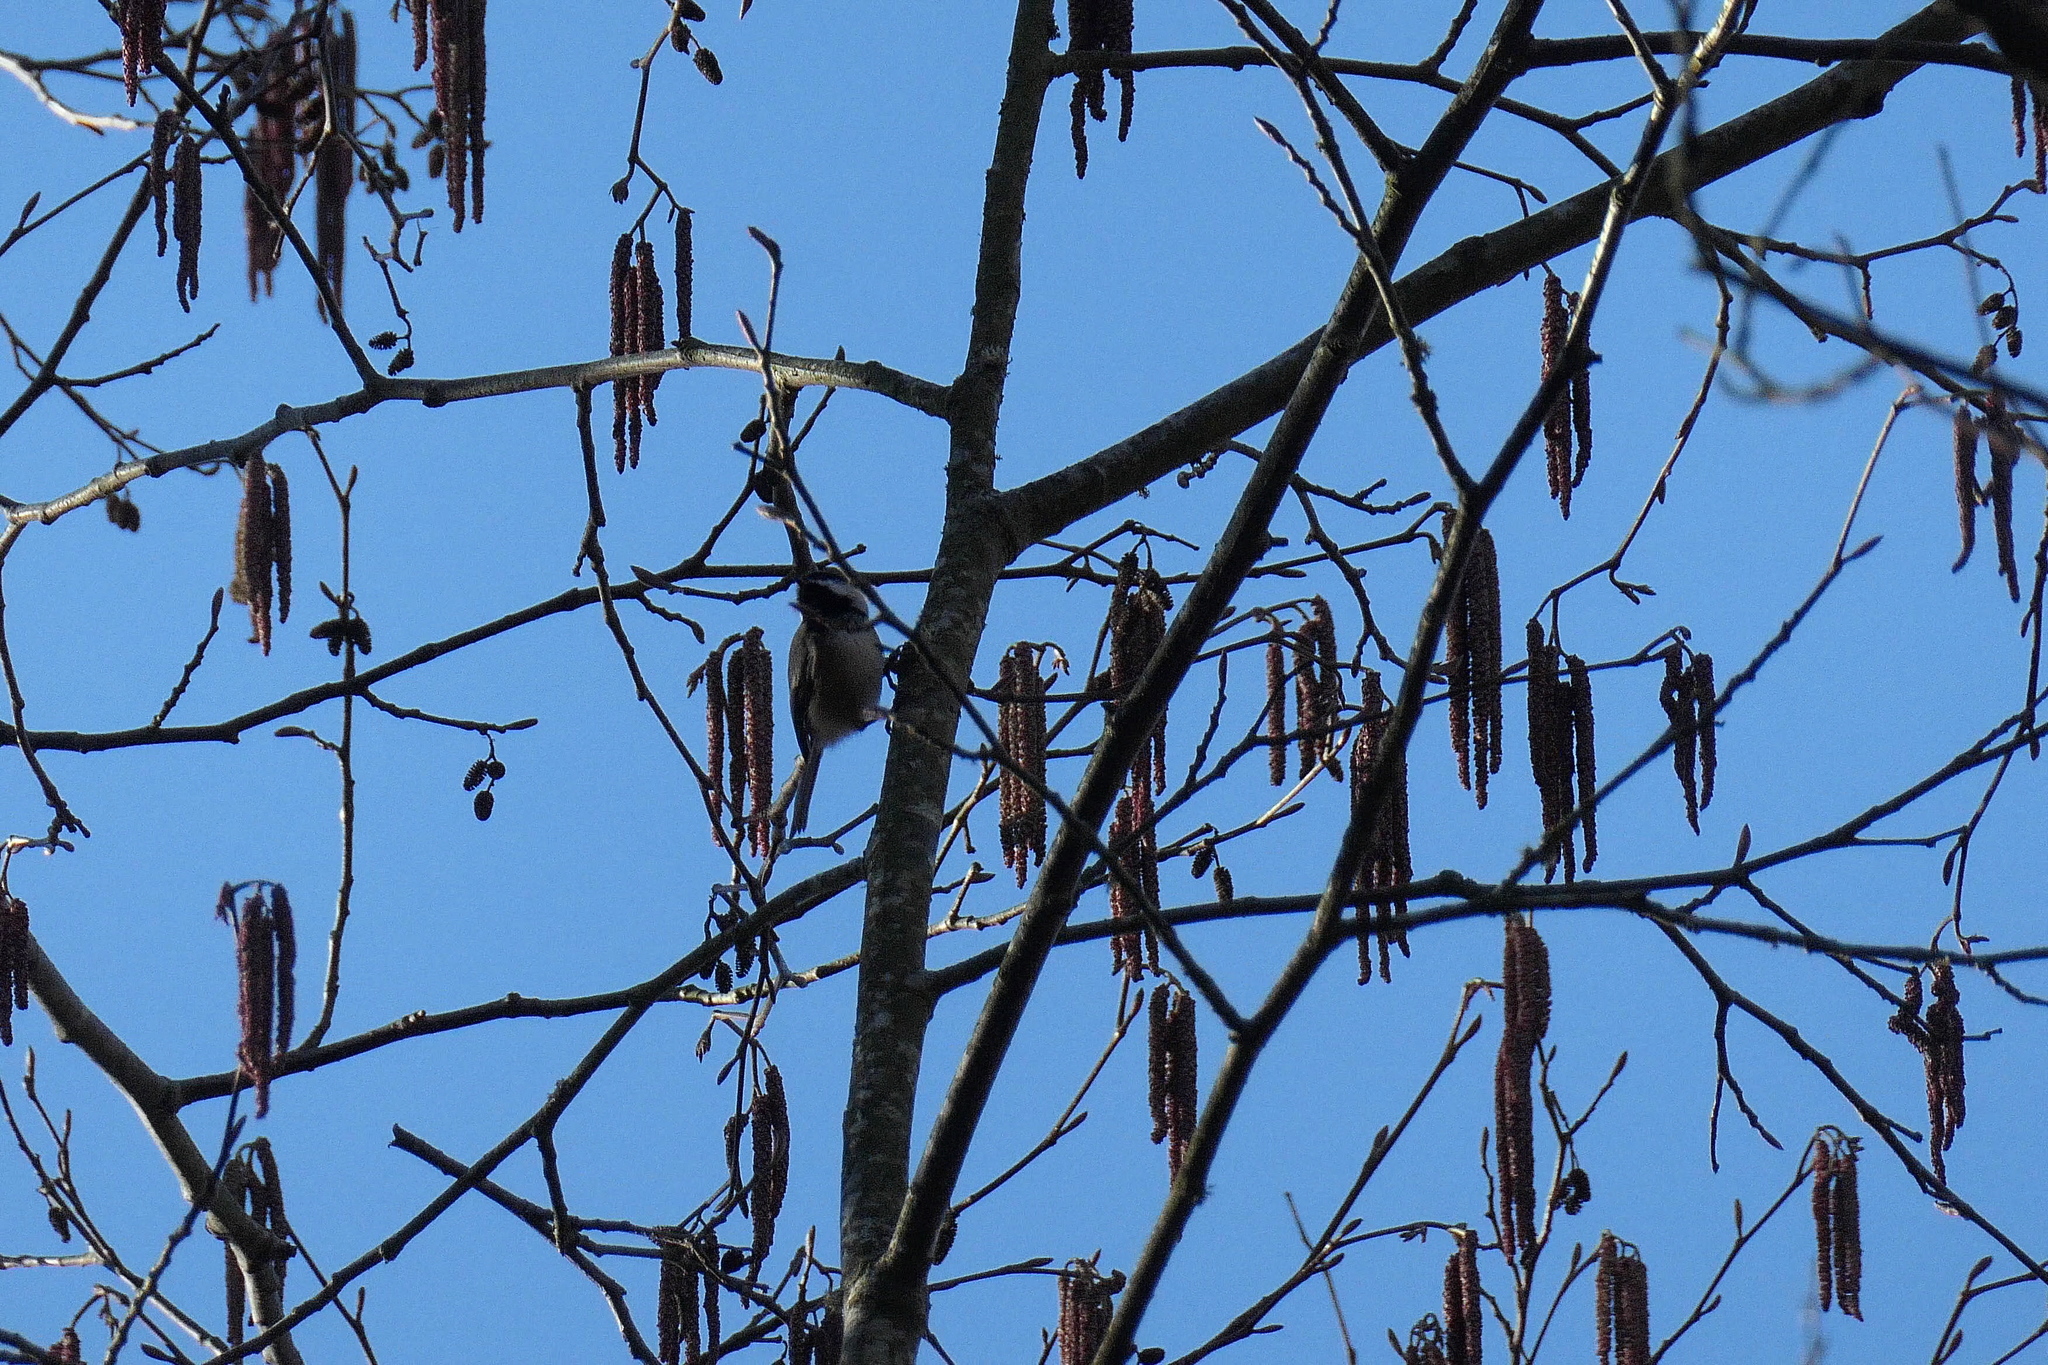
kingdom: Animalia
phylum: Chordata
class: Aves
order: Passeriformes
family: Paridae
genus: Poecile
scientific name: Poecile atricapillus
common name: Black-capped chickadee
